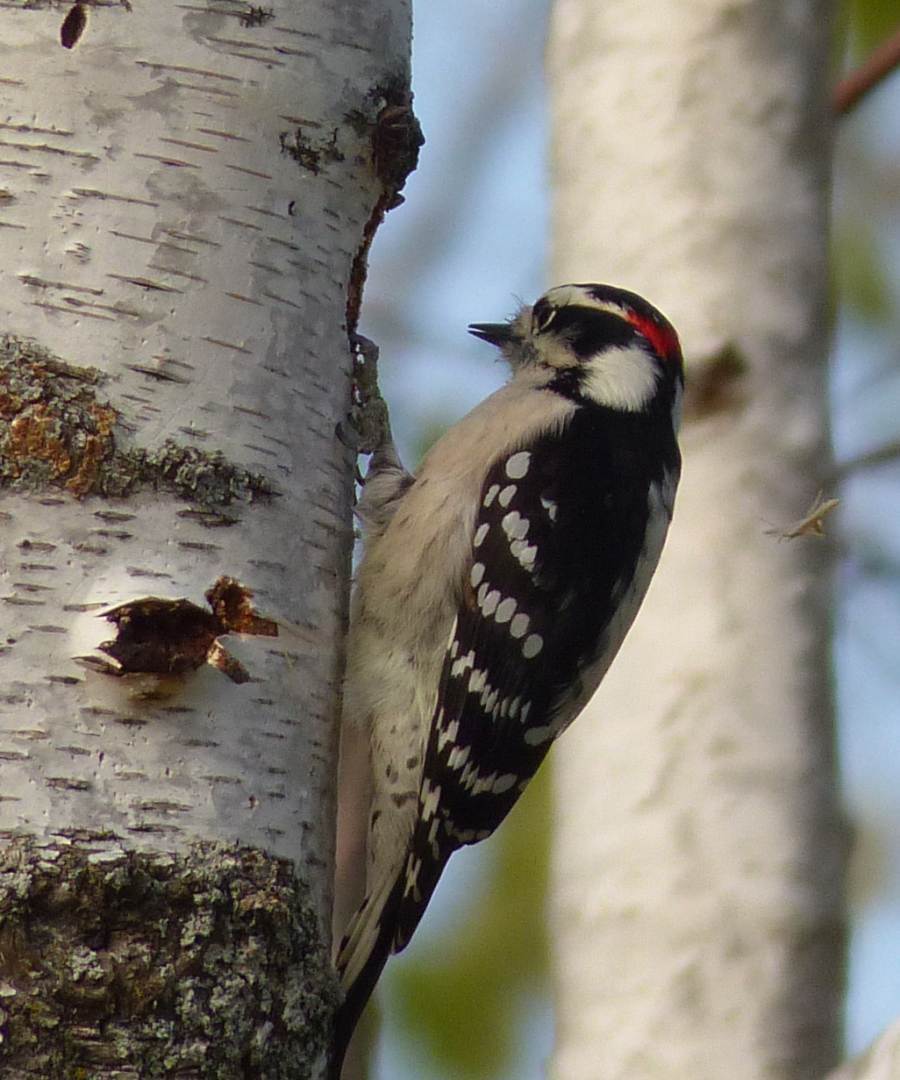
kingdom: Animalia
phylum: Chordata
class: Aves
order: Piciformes
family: Picidae
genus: Dryobates
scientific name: Dryobates pubescens
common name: Downy woodpecker
